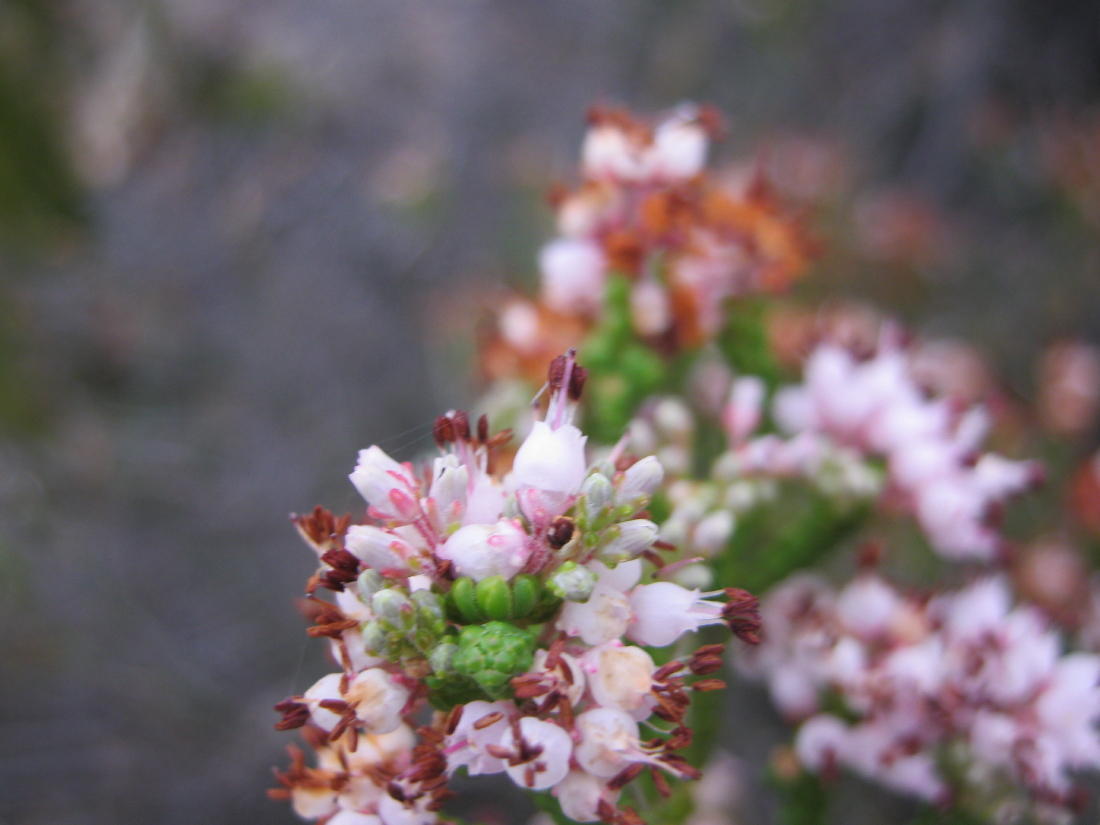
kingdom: Plantae
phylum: Tracheophyta
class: Magnoliopsida
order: Ericales
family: Ericaceae
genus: Erica
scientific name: Erica petraea
